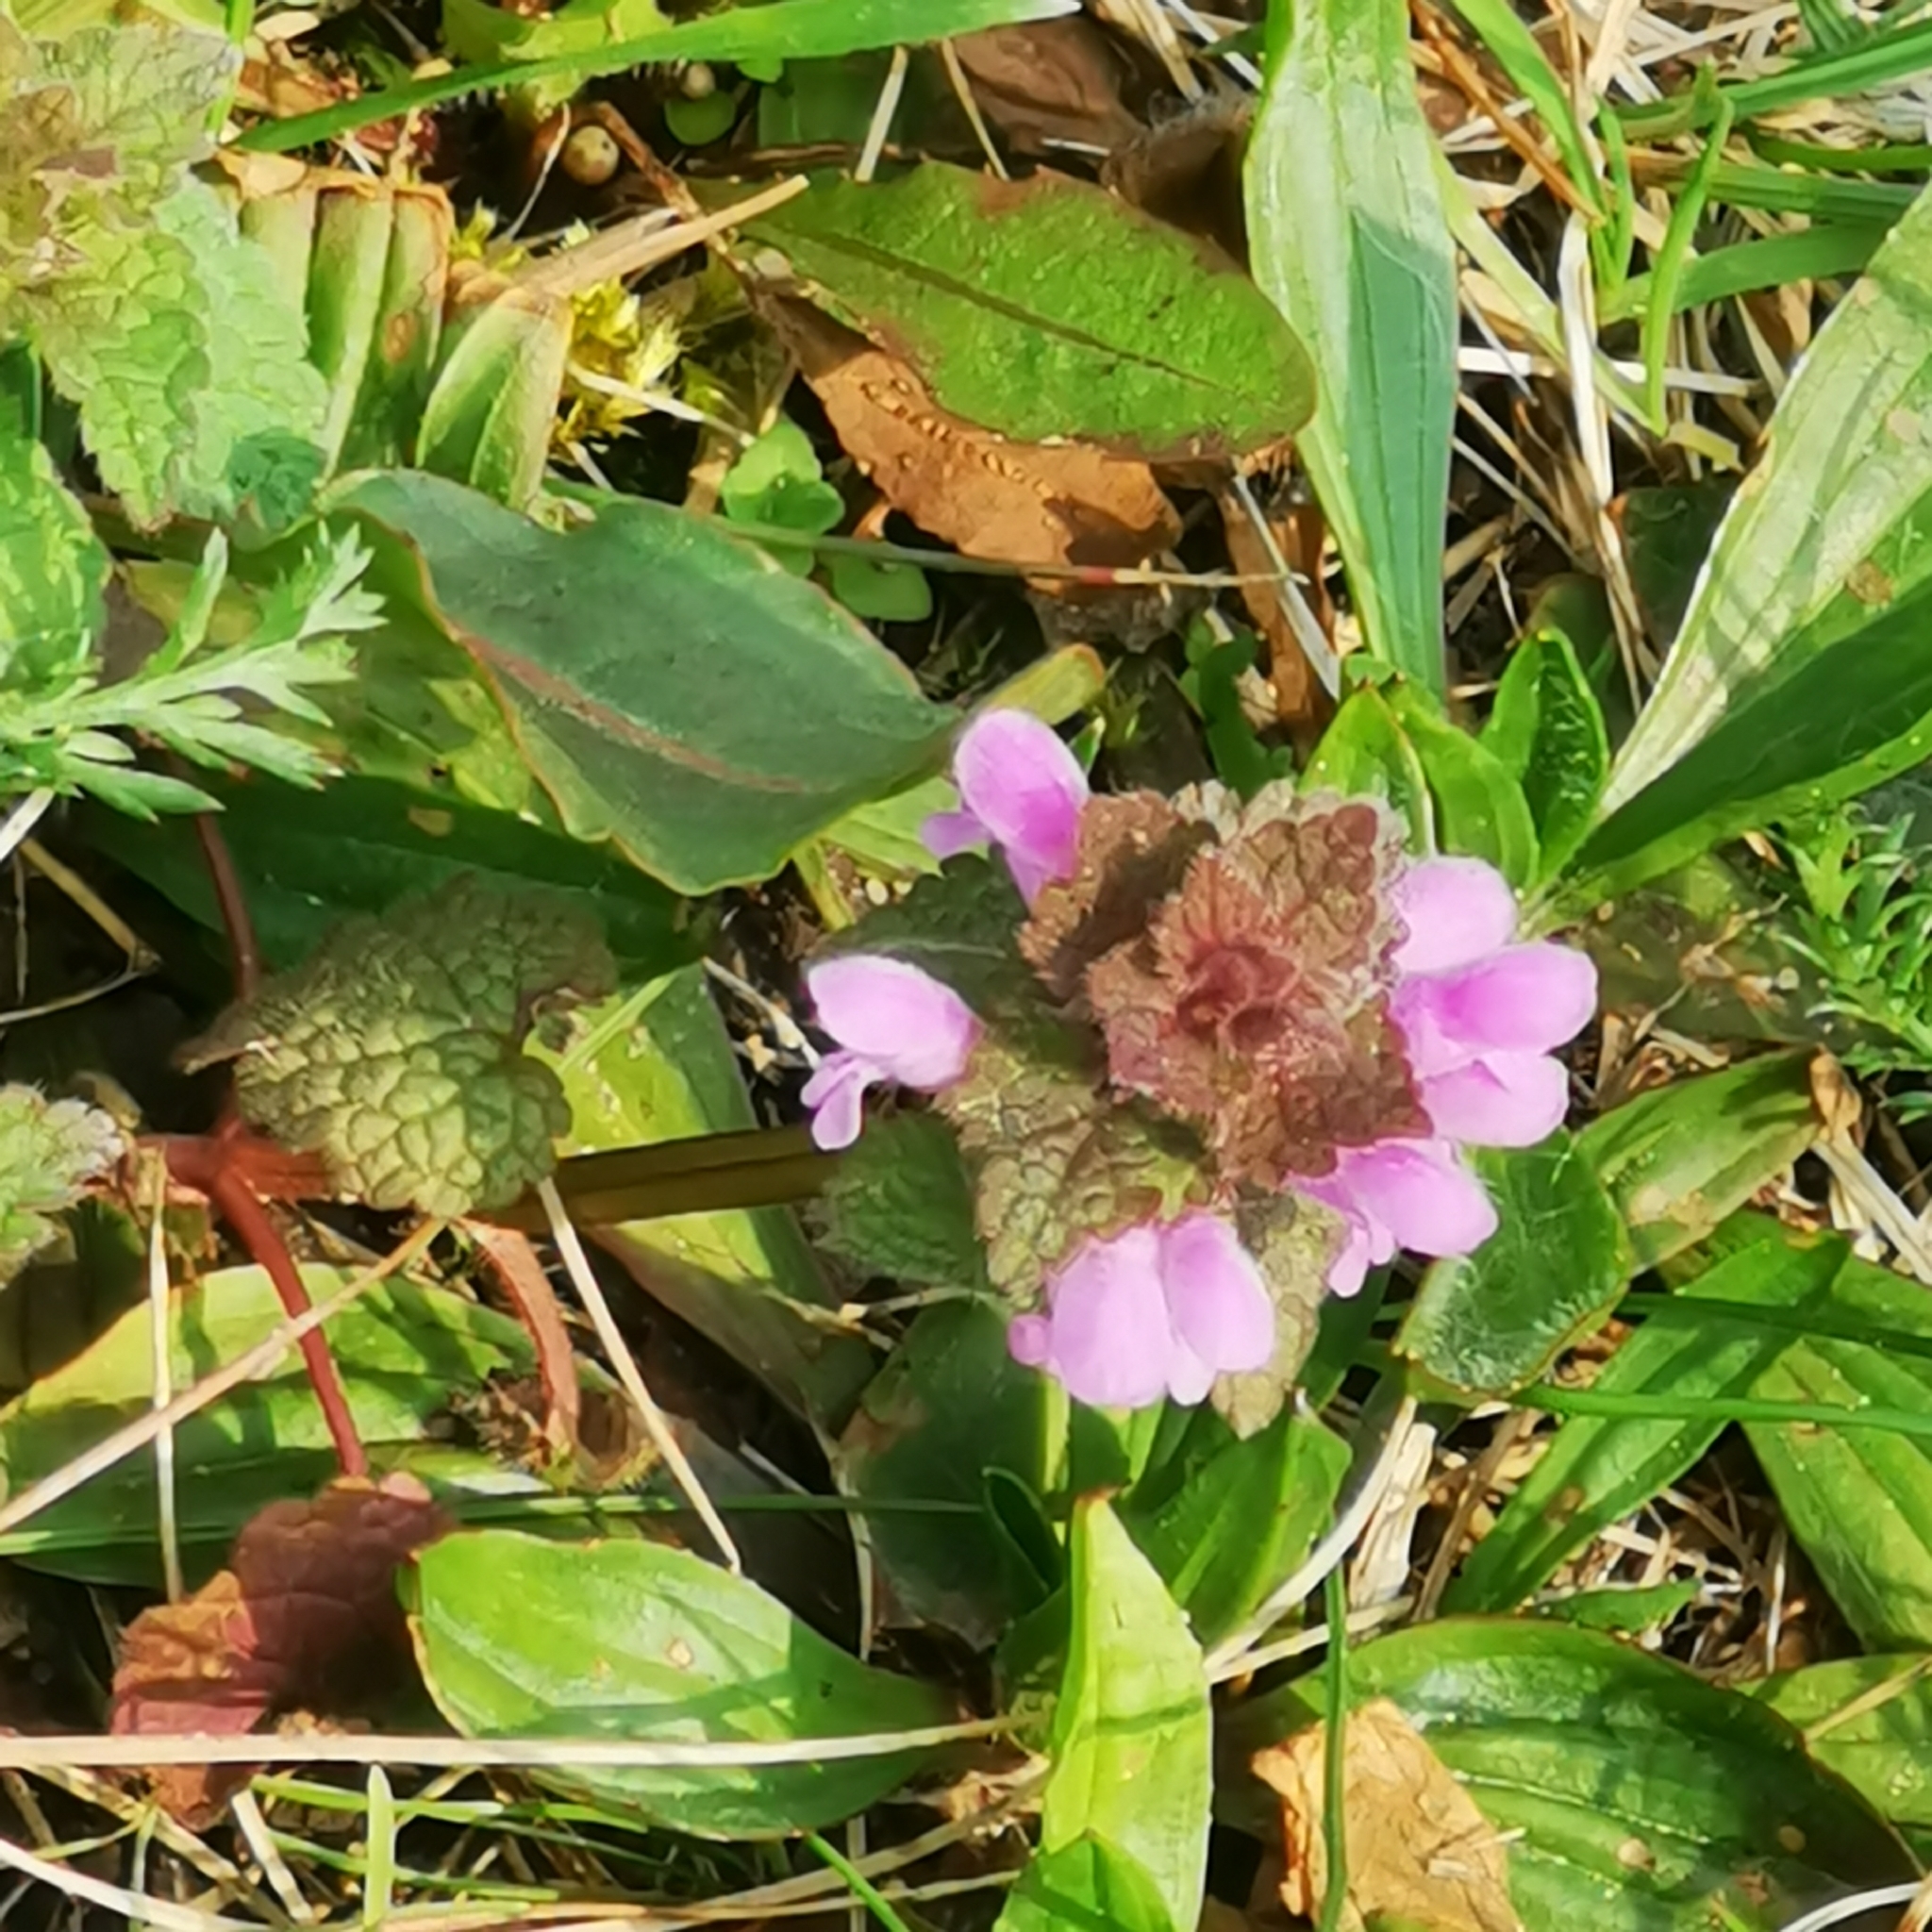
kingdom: Plantae
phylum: Tracheophyta
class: Magnoliopsida
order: Lamiales
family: Lamiaceae
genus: Lamium
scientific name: Lamium purpureum
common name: Red dead-nettle
